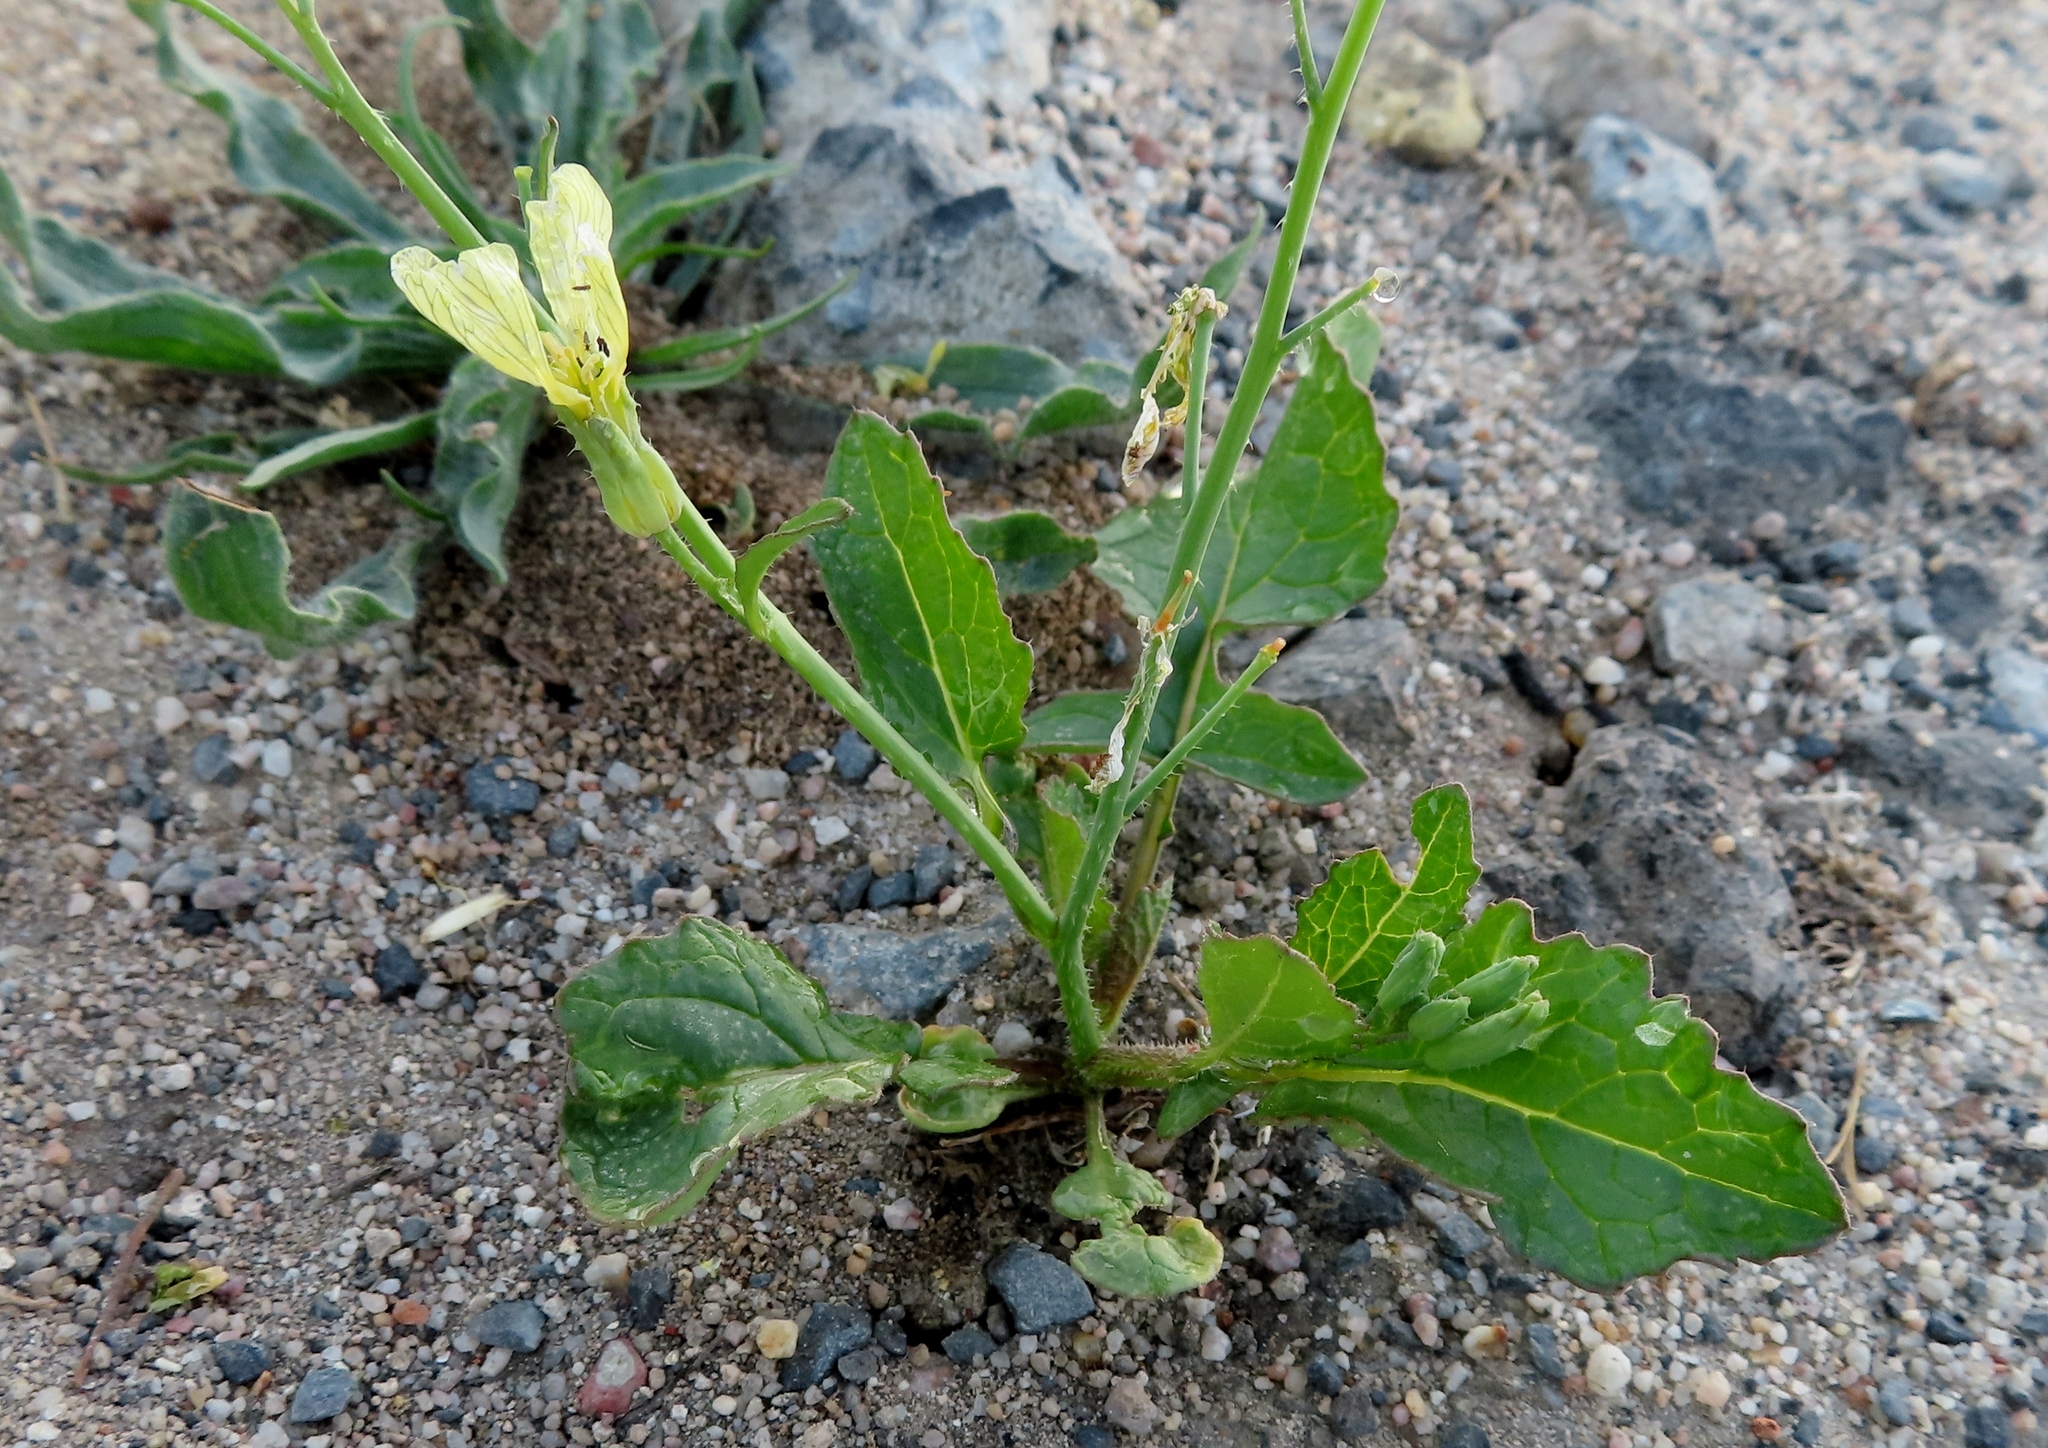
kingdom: Plantae
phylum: Tracheophyta
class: Magnoliopsida
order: Brassicales
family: Brassicaceae
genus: Raphanus
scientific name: Raphanus raphanistrum
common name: Wild radish
